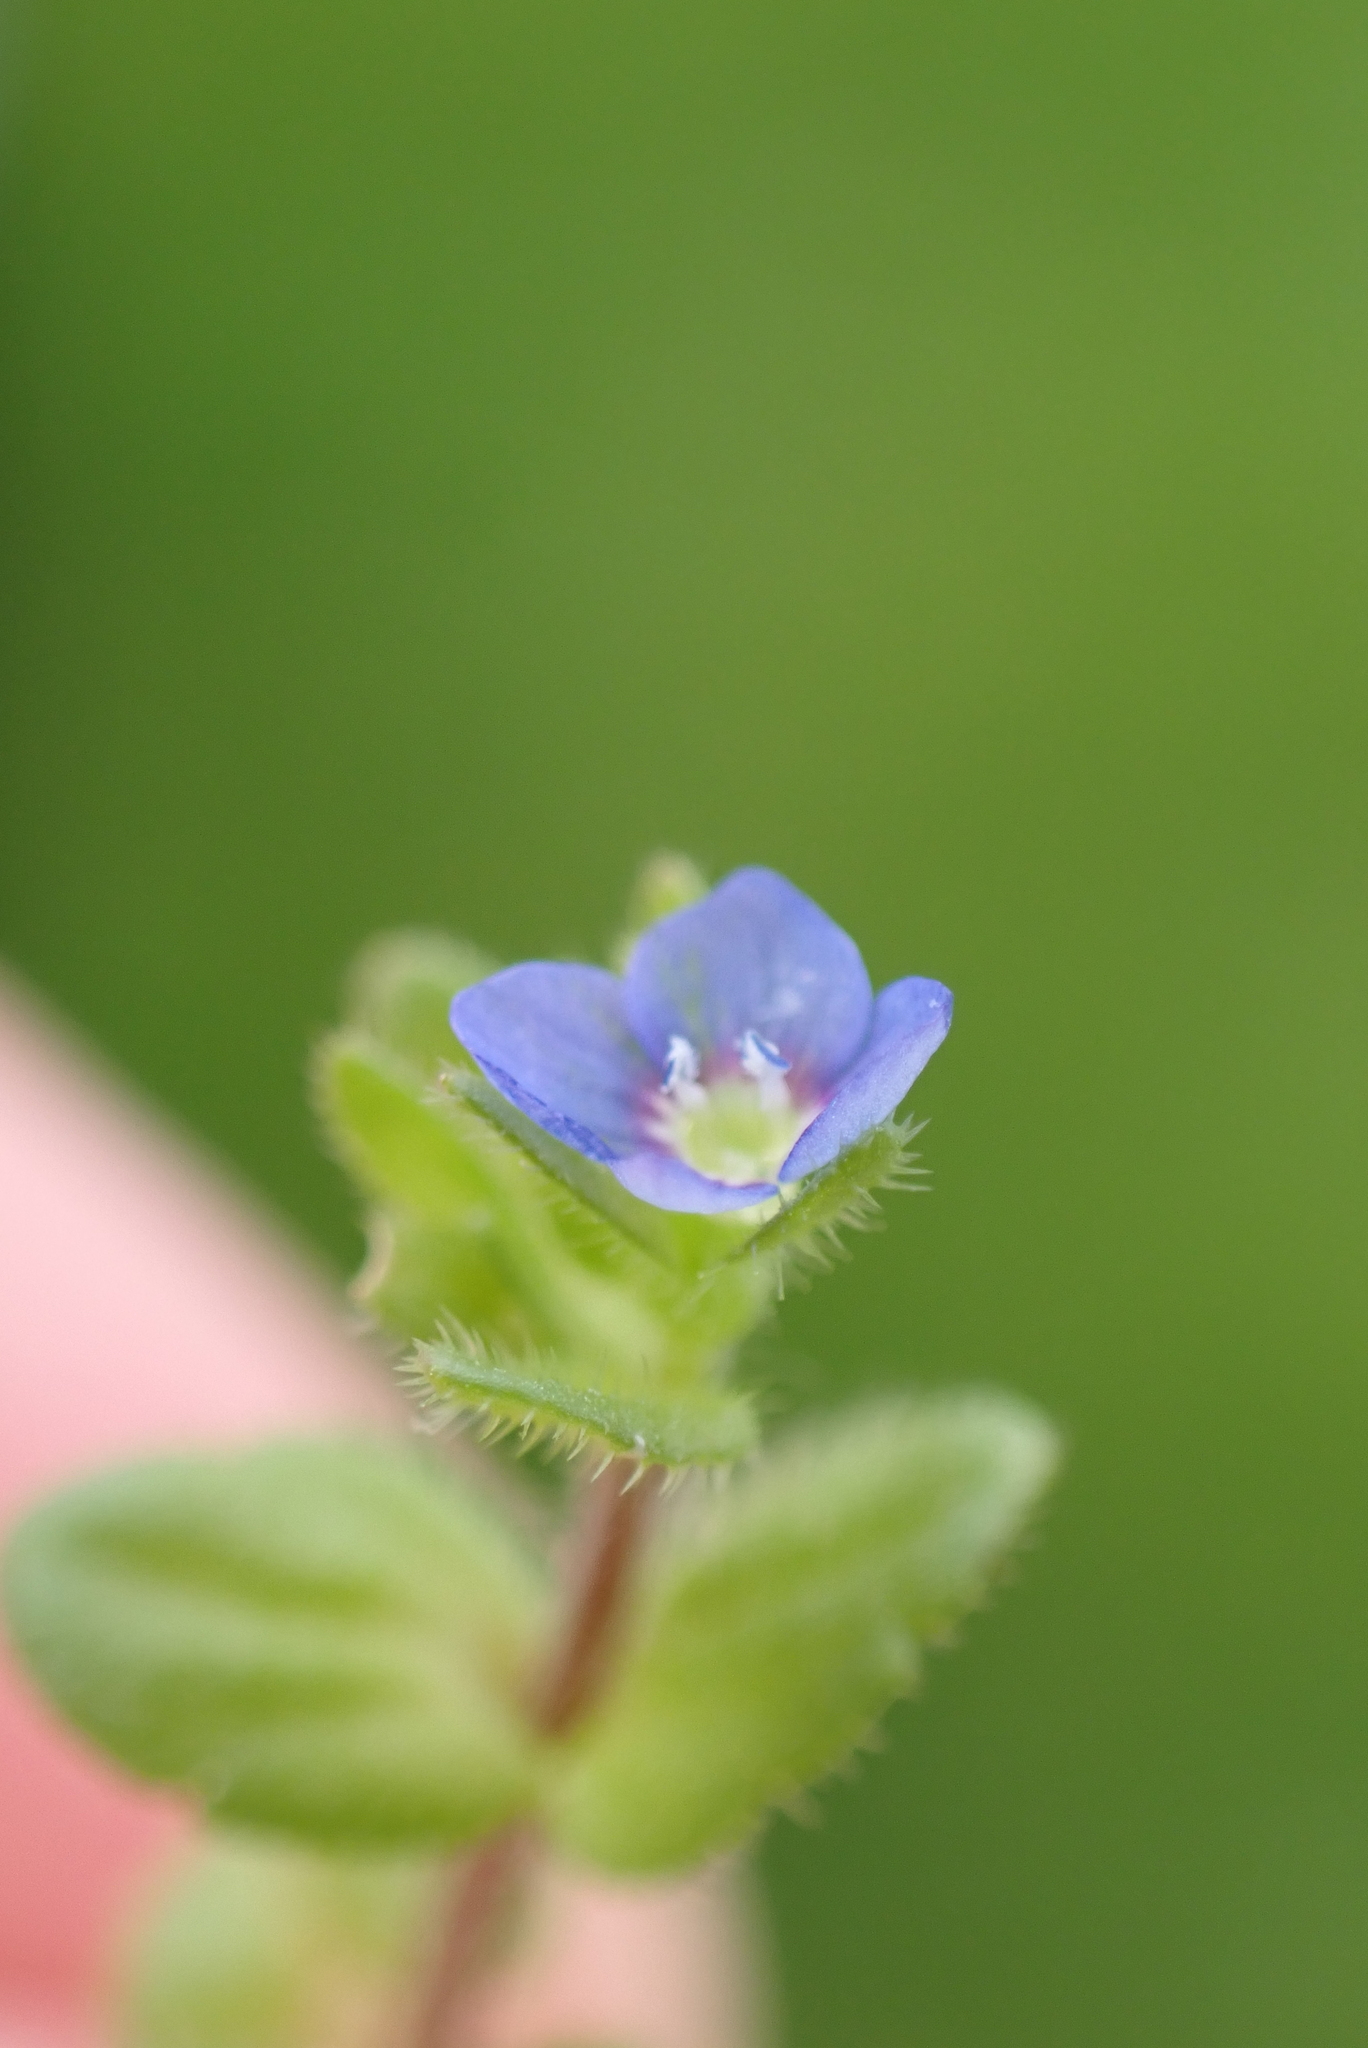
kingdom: Plantae
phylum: Tracheophyta
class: Magnoliopsida
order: Lamiales
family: Plantaginaceae
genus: Veronica
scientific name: Veronica arvensis
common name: Corn speedwell
